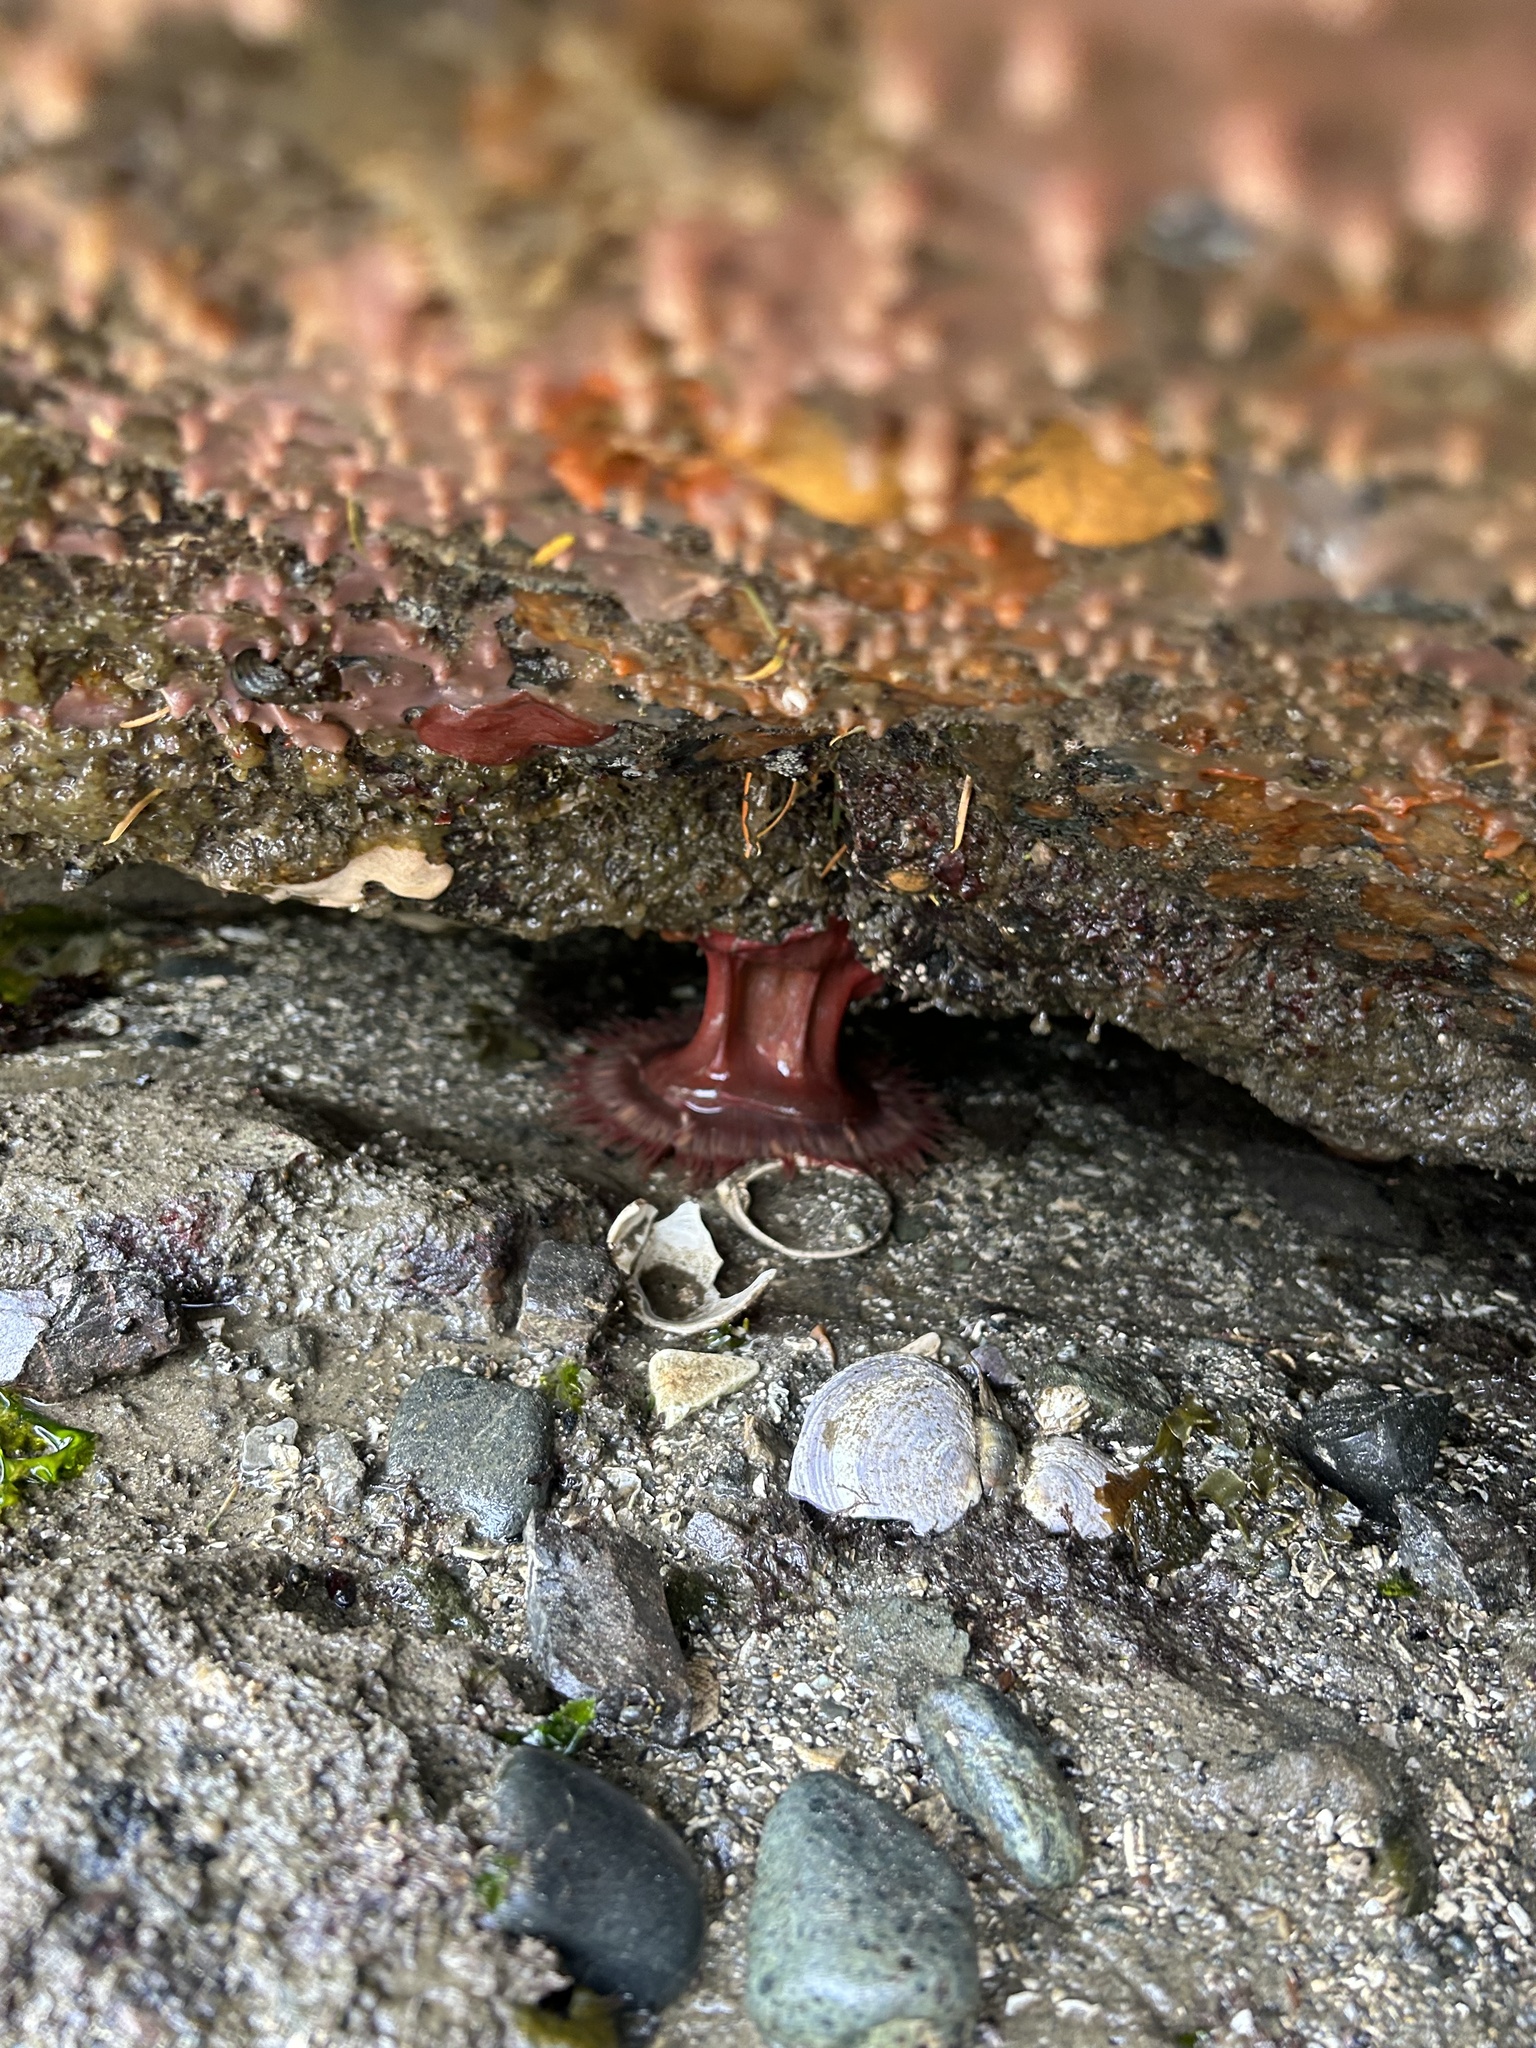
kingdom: Animalia
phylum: Cnidaria
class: Anthozoa
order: Actiniaria
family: Actiniidae
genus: Urticina
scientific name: Urticina grebelnyi
